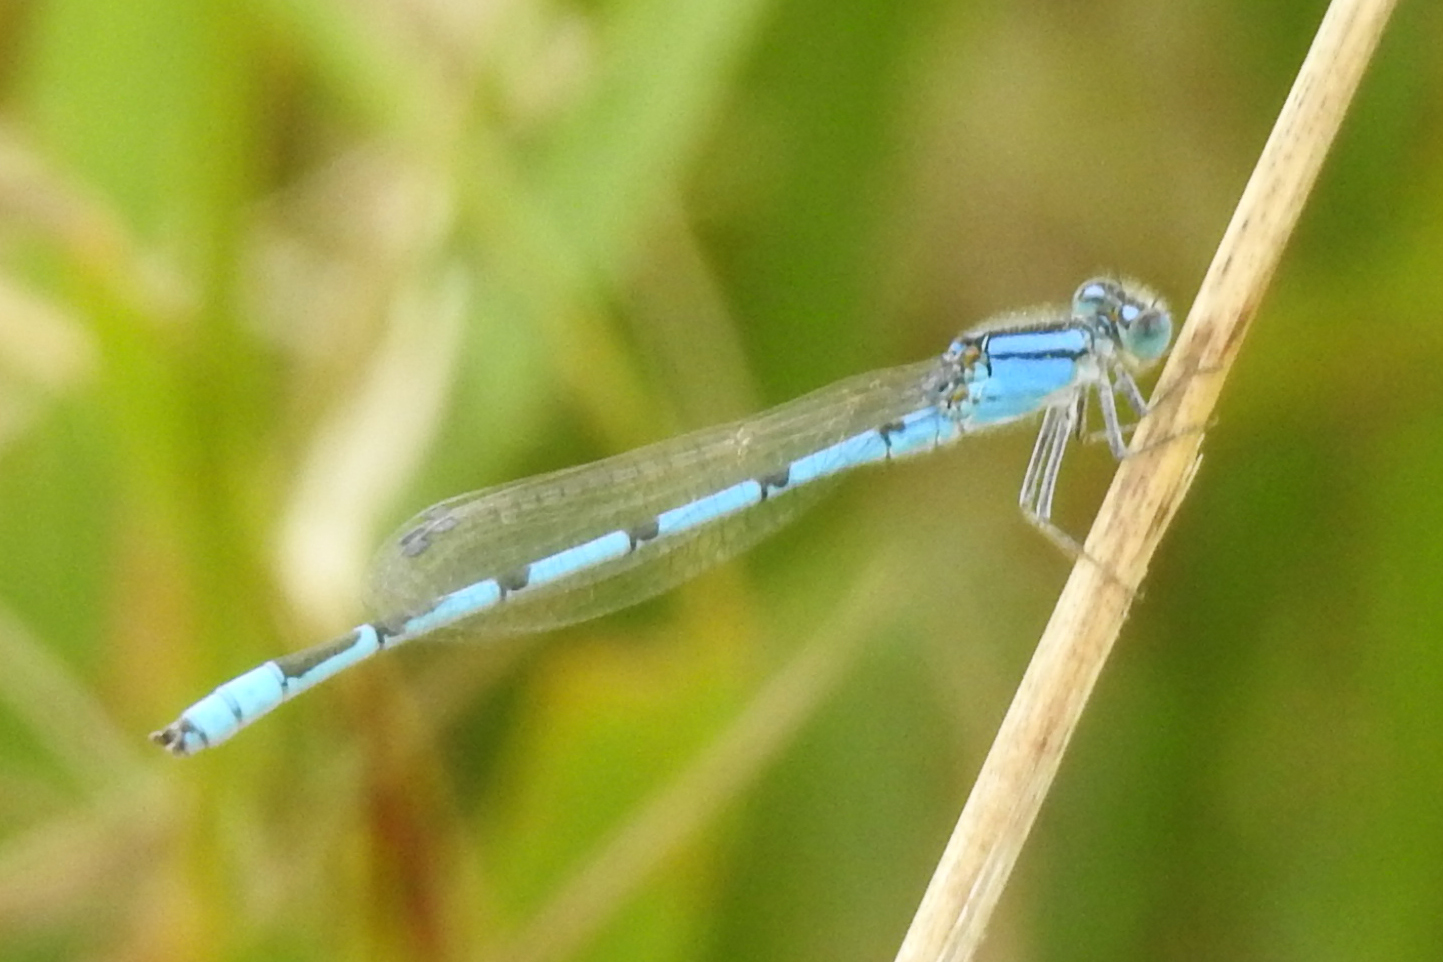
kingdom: Animalia
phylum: Arthropoda
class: Insecta
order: Odonata
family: Coenagrionidae
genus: Enallagma
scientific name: Enallagma civile
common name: Damselfly
